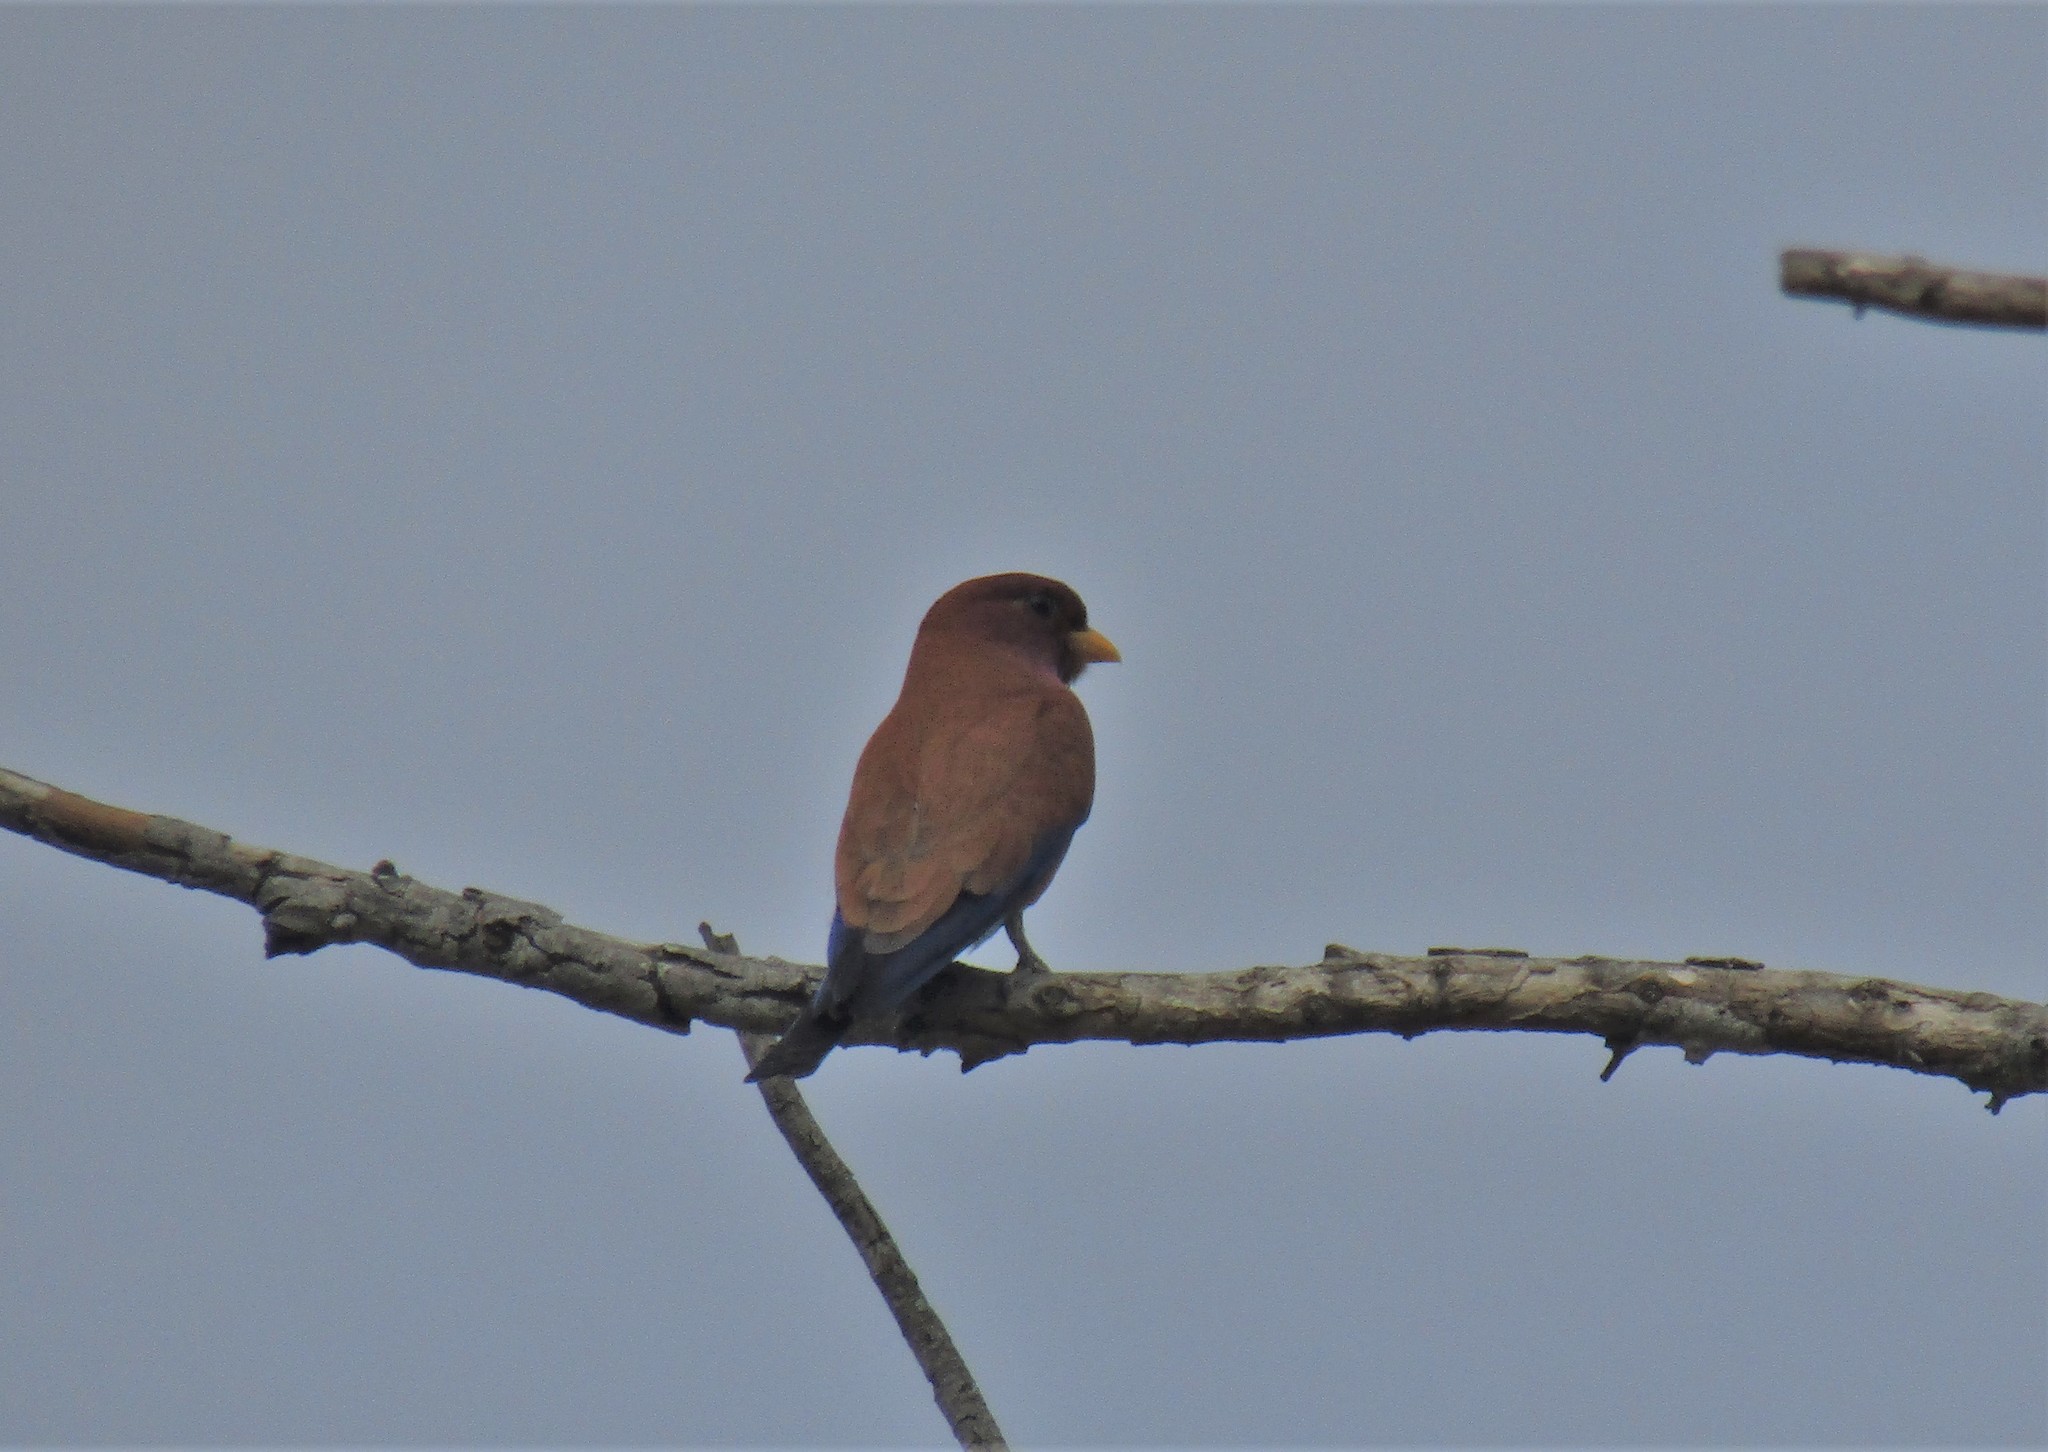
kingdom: Animalia
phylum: Chordata
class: Aves
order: Coraciiformes
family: Coraciidae
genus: Eurystomus
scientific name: Eurystomus glaucurus
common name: Broad-billed roller
